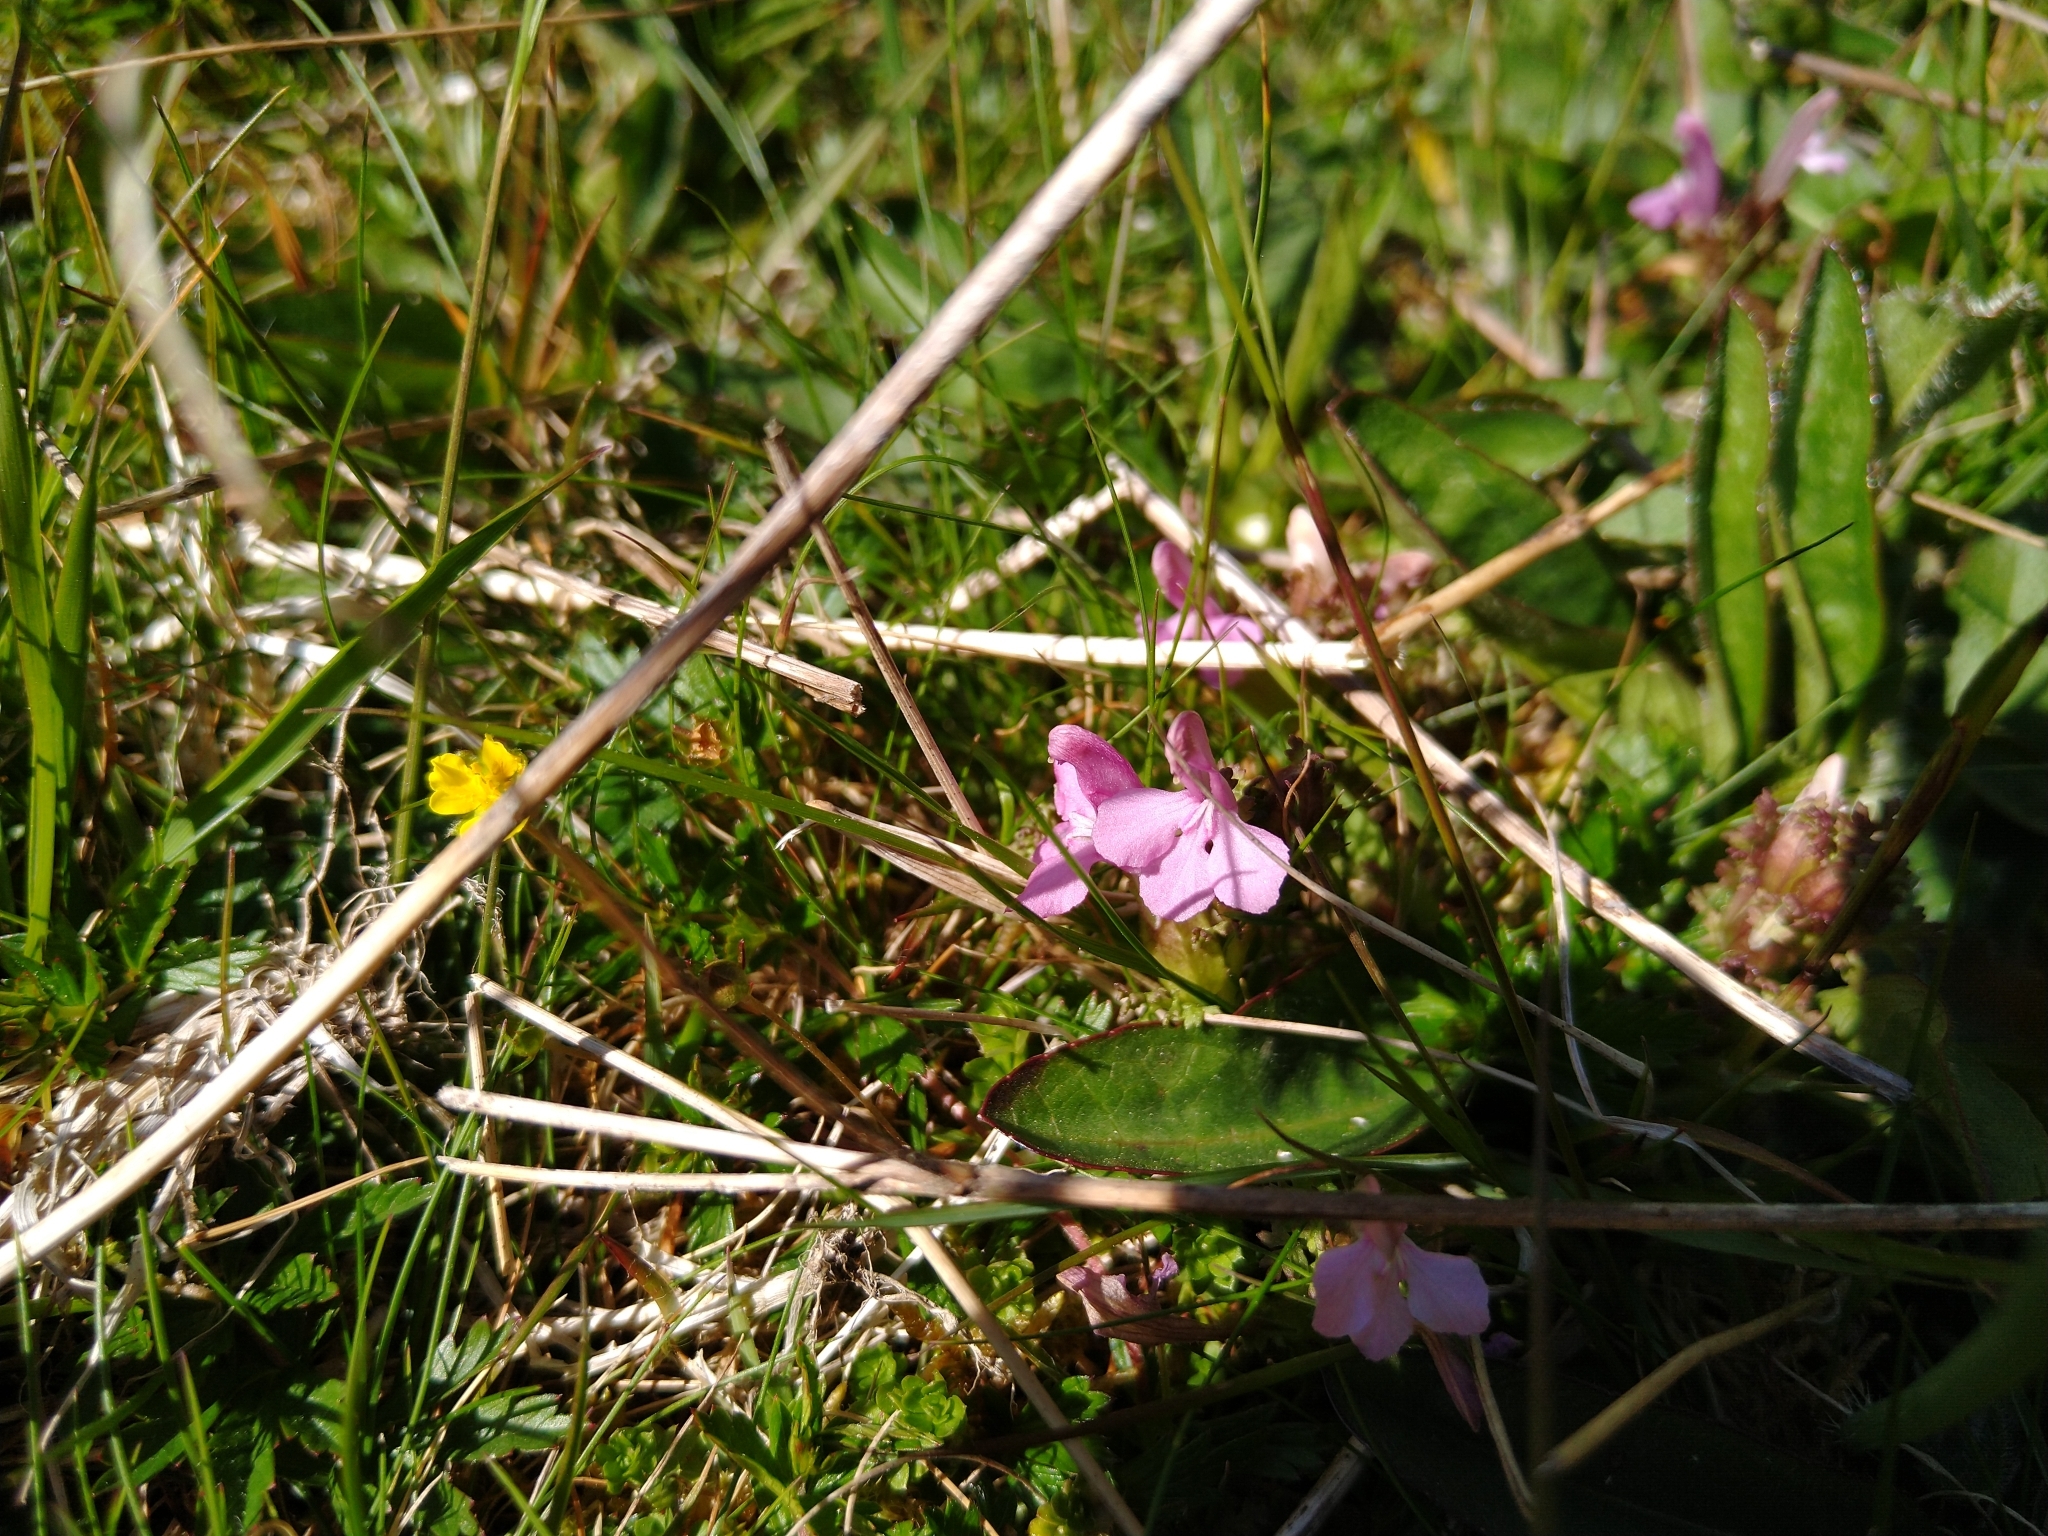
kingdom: Plantae
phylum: Tracheophyta
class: Magnoliopsida
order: Lamiales
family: Orobanchaceae
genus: Pedicularis
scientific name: Pedicularis sylvatica
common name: Lousewort
